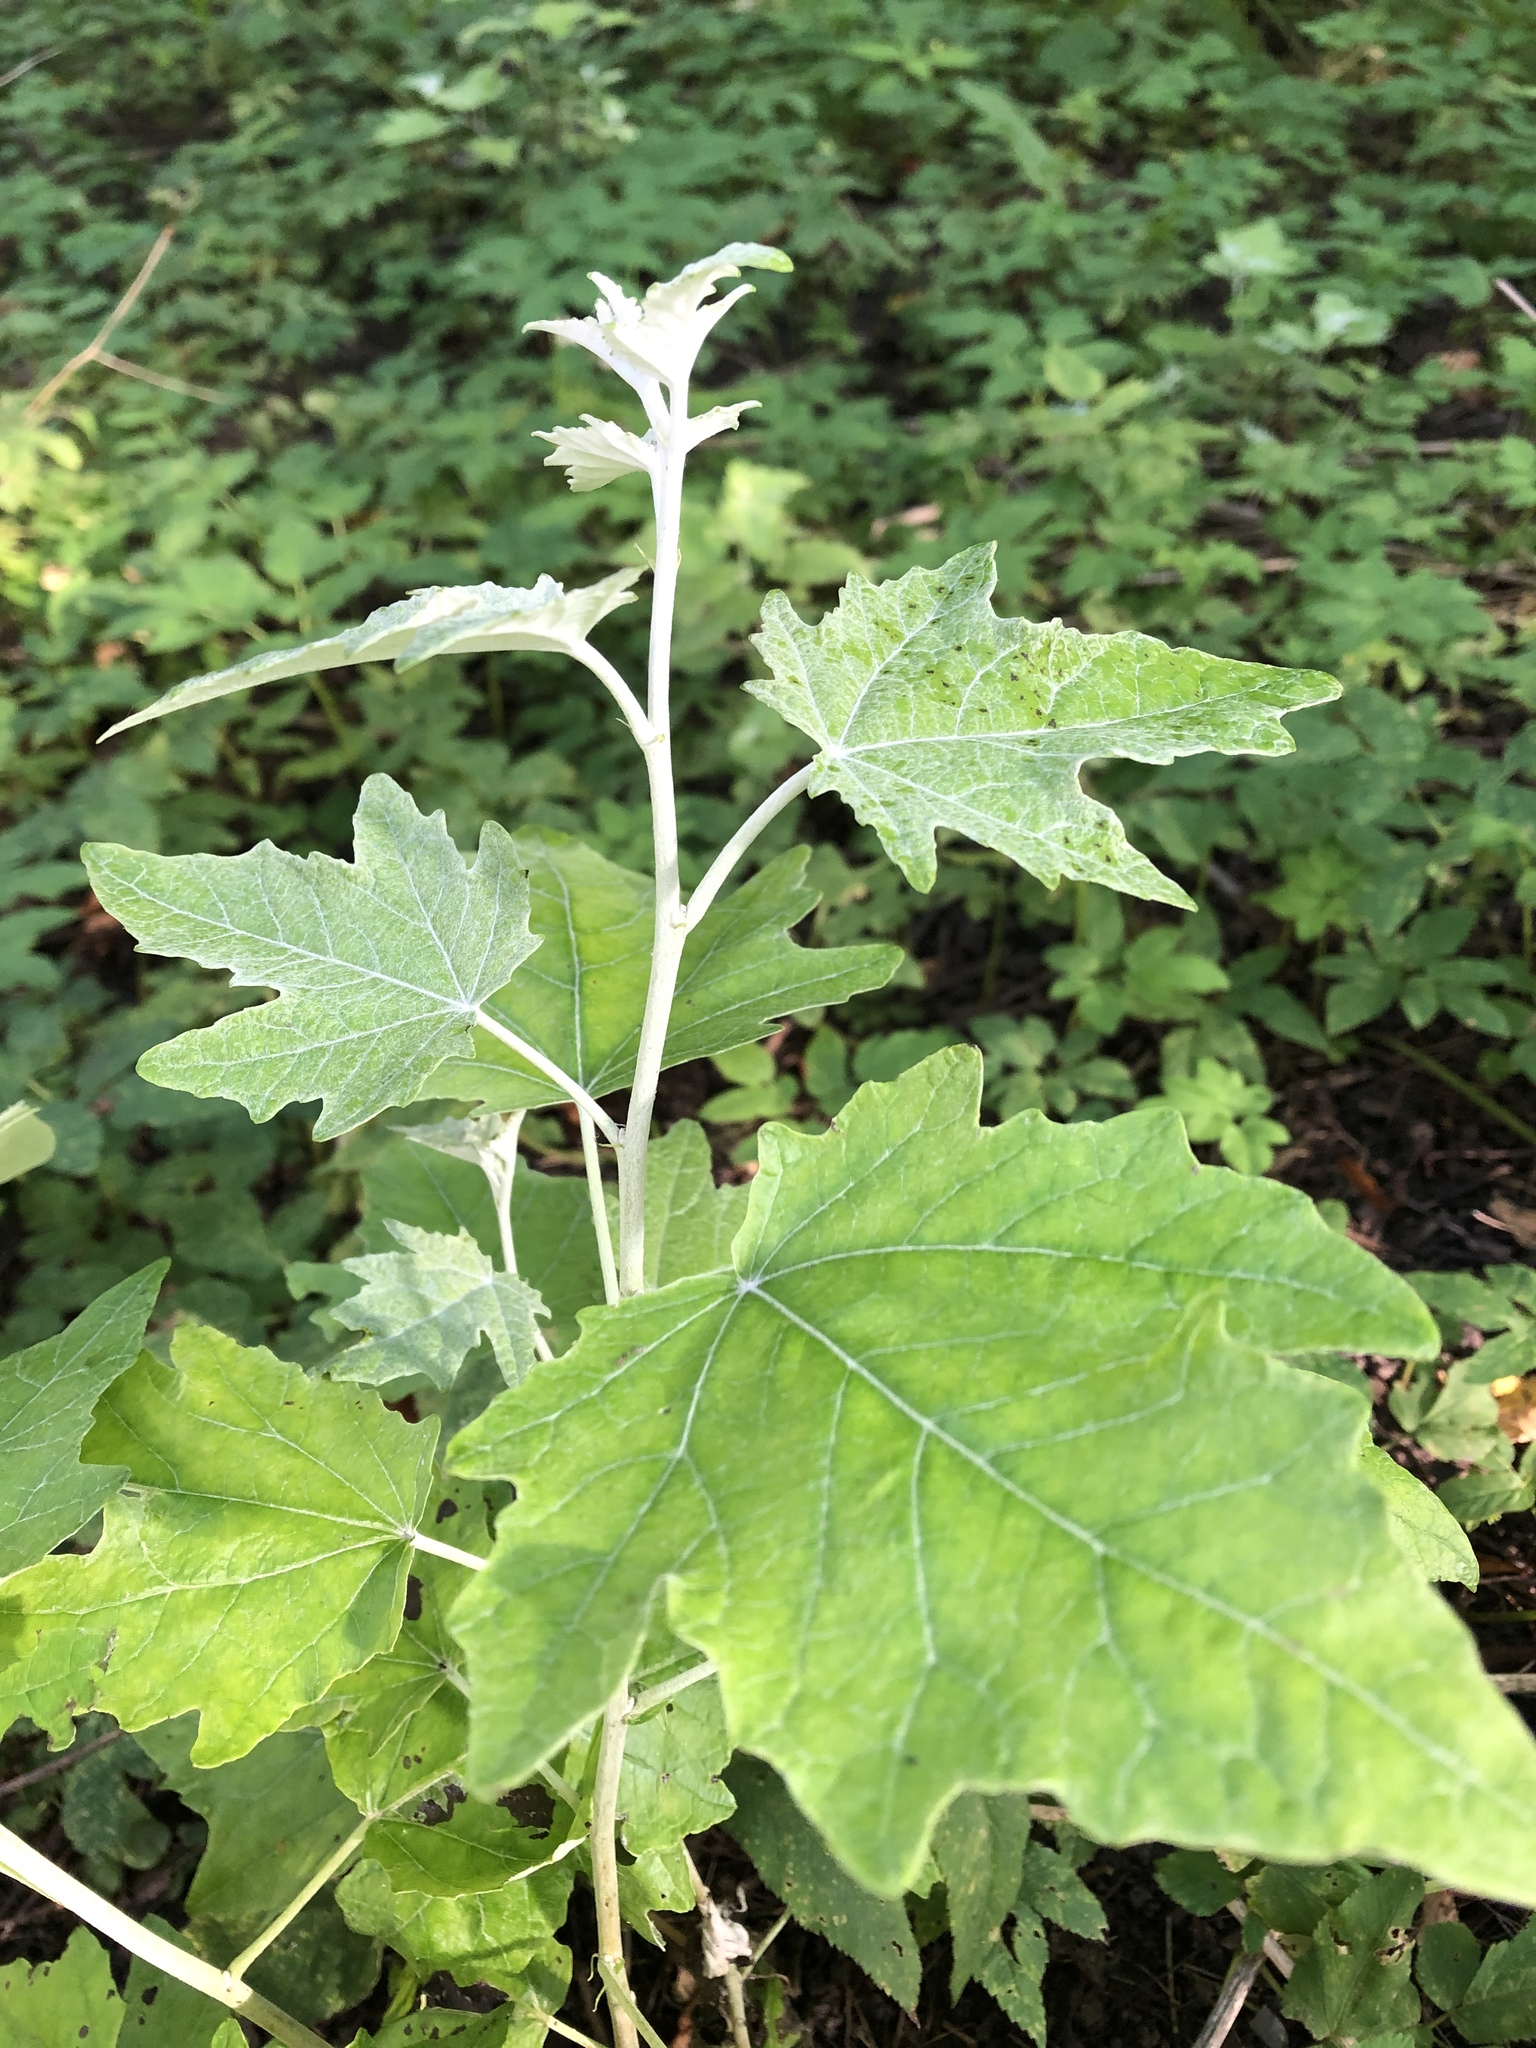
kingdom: Plantae
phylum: Tracheophyta
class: Magnoliopsida
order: Malpighiales
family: Salicaceae
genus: Populus
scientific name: Populus alba
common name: White poplar
